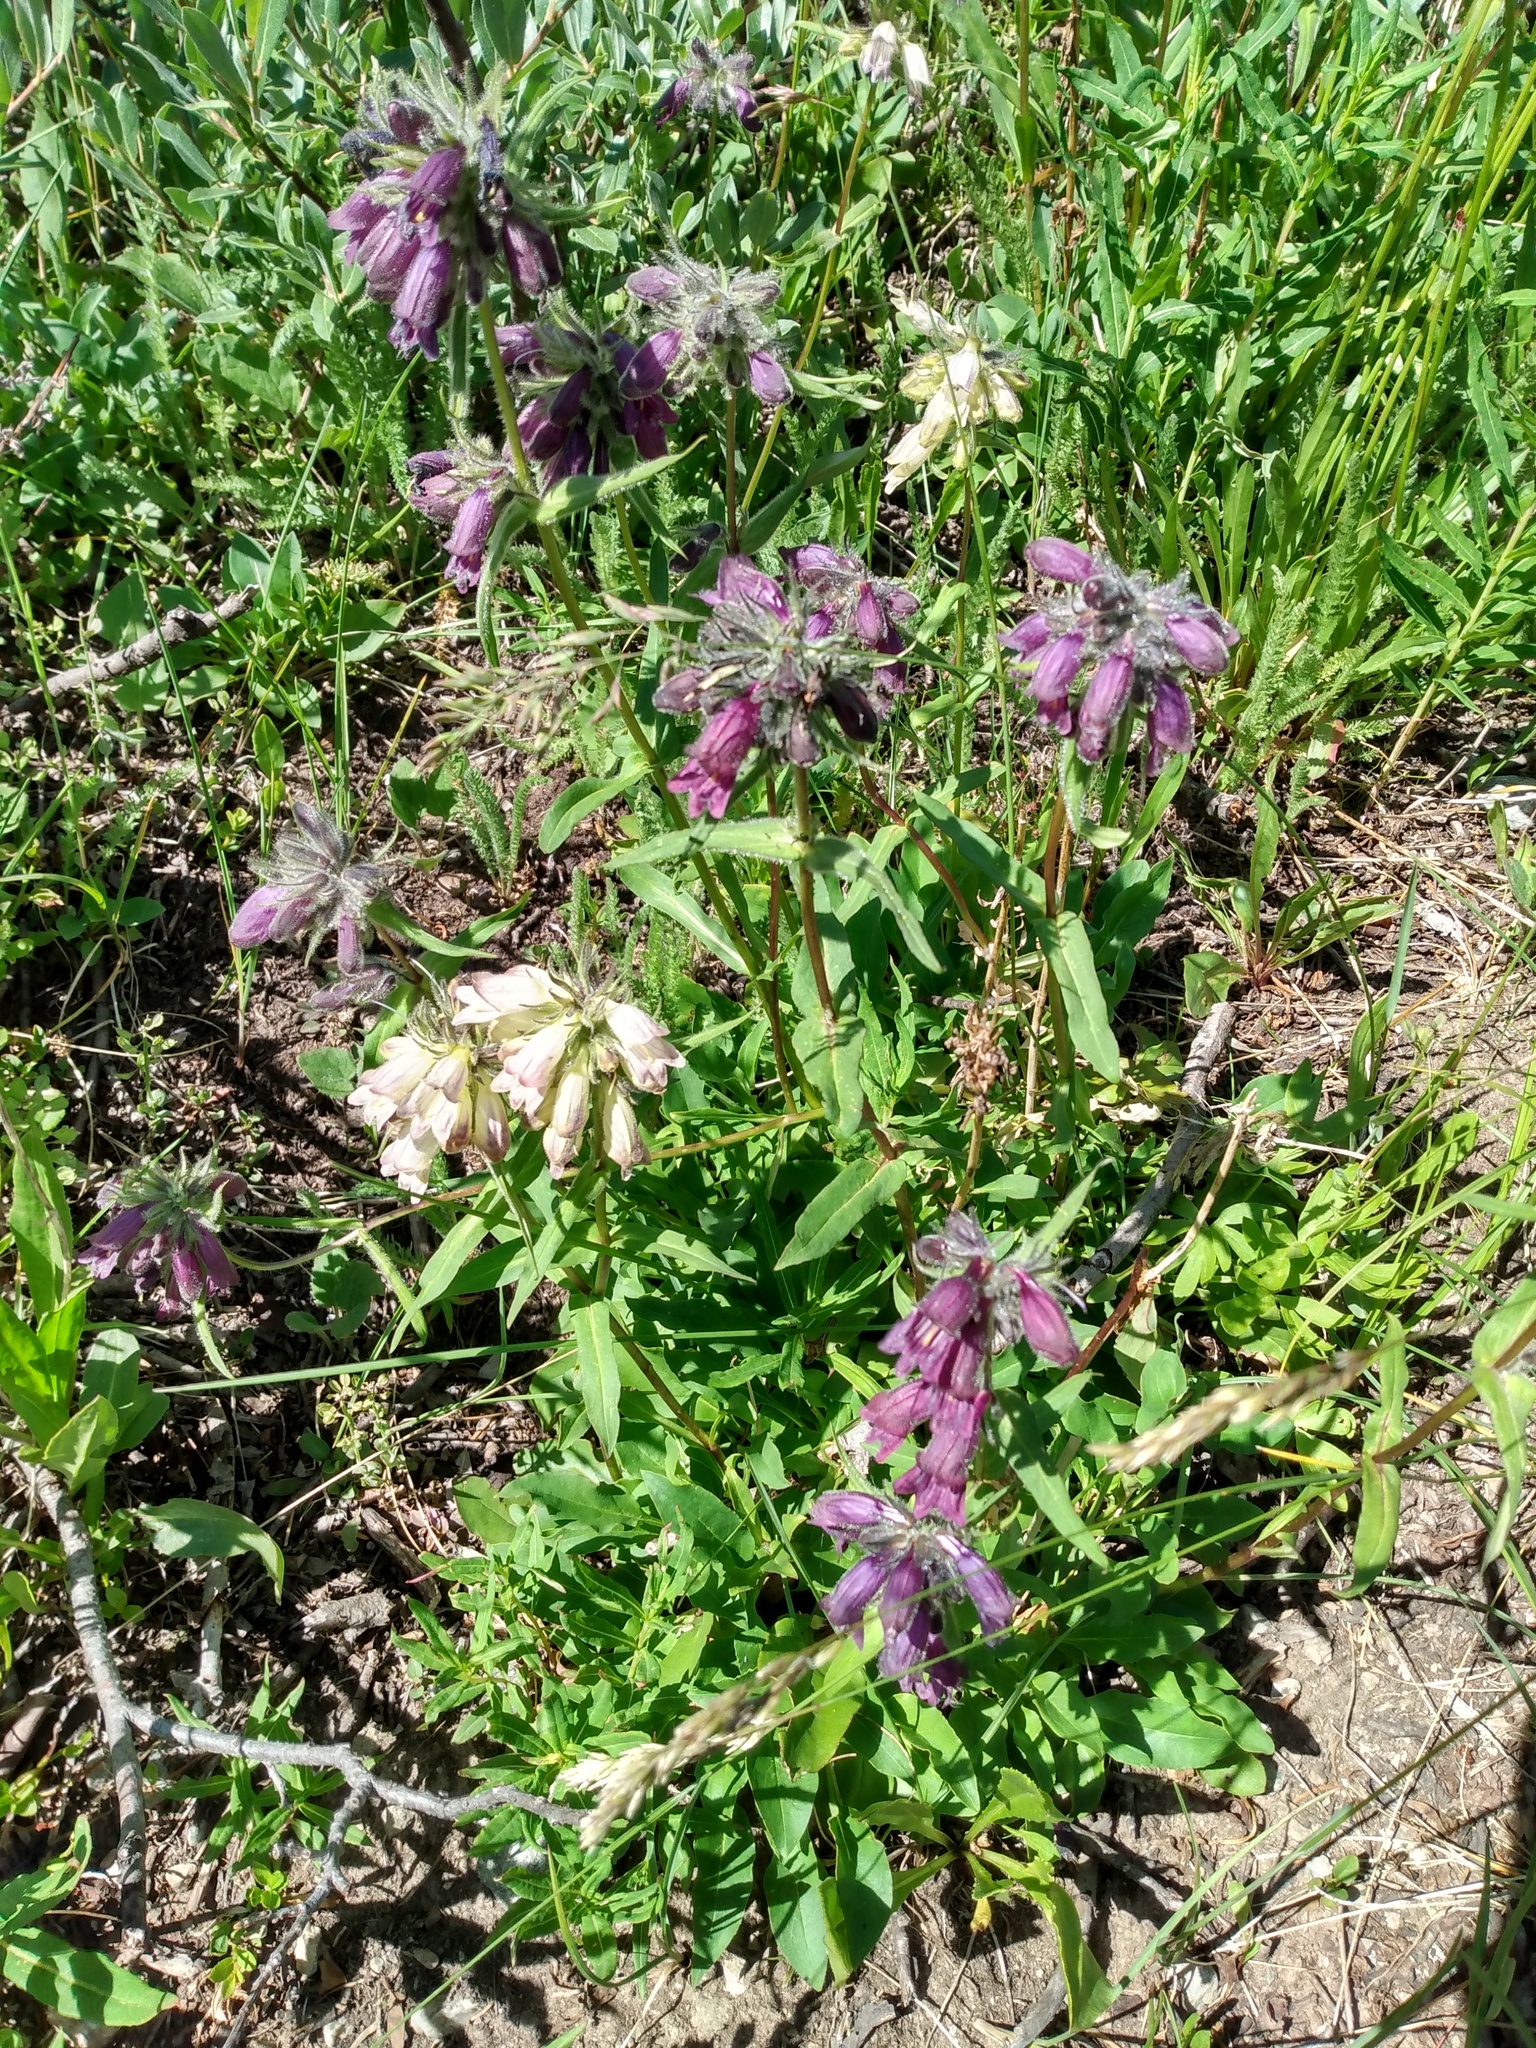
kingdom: Plantae
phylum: Tracheophyta
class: Magnoliopsida
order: Lamiales
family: Plantaginaceae
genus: Penstemon
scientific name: Penstemon whippleanus
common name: Whipple's penstemon
